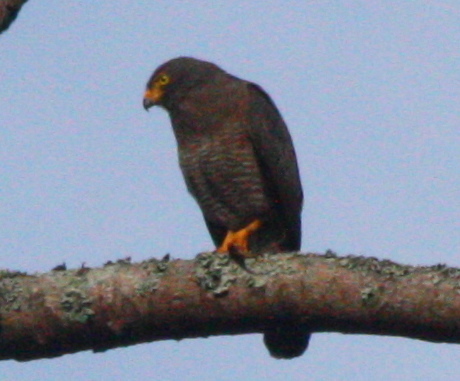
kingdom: Animalia
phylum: Chordata
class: Aves
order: Accipitriformes
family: Accipitridae
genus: Rupornis
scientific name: Rupornis magnirostris
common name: Roadside hawk
